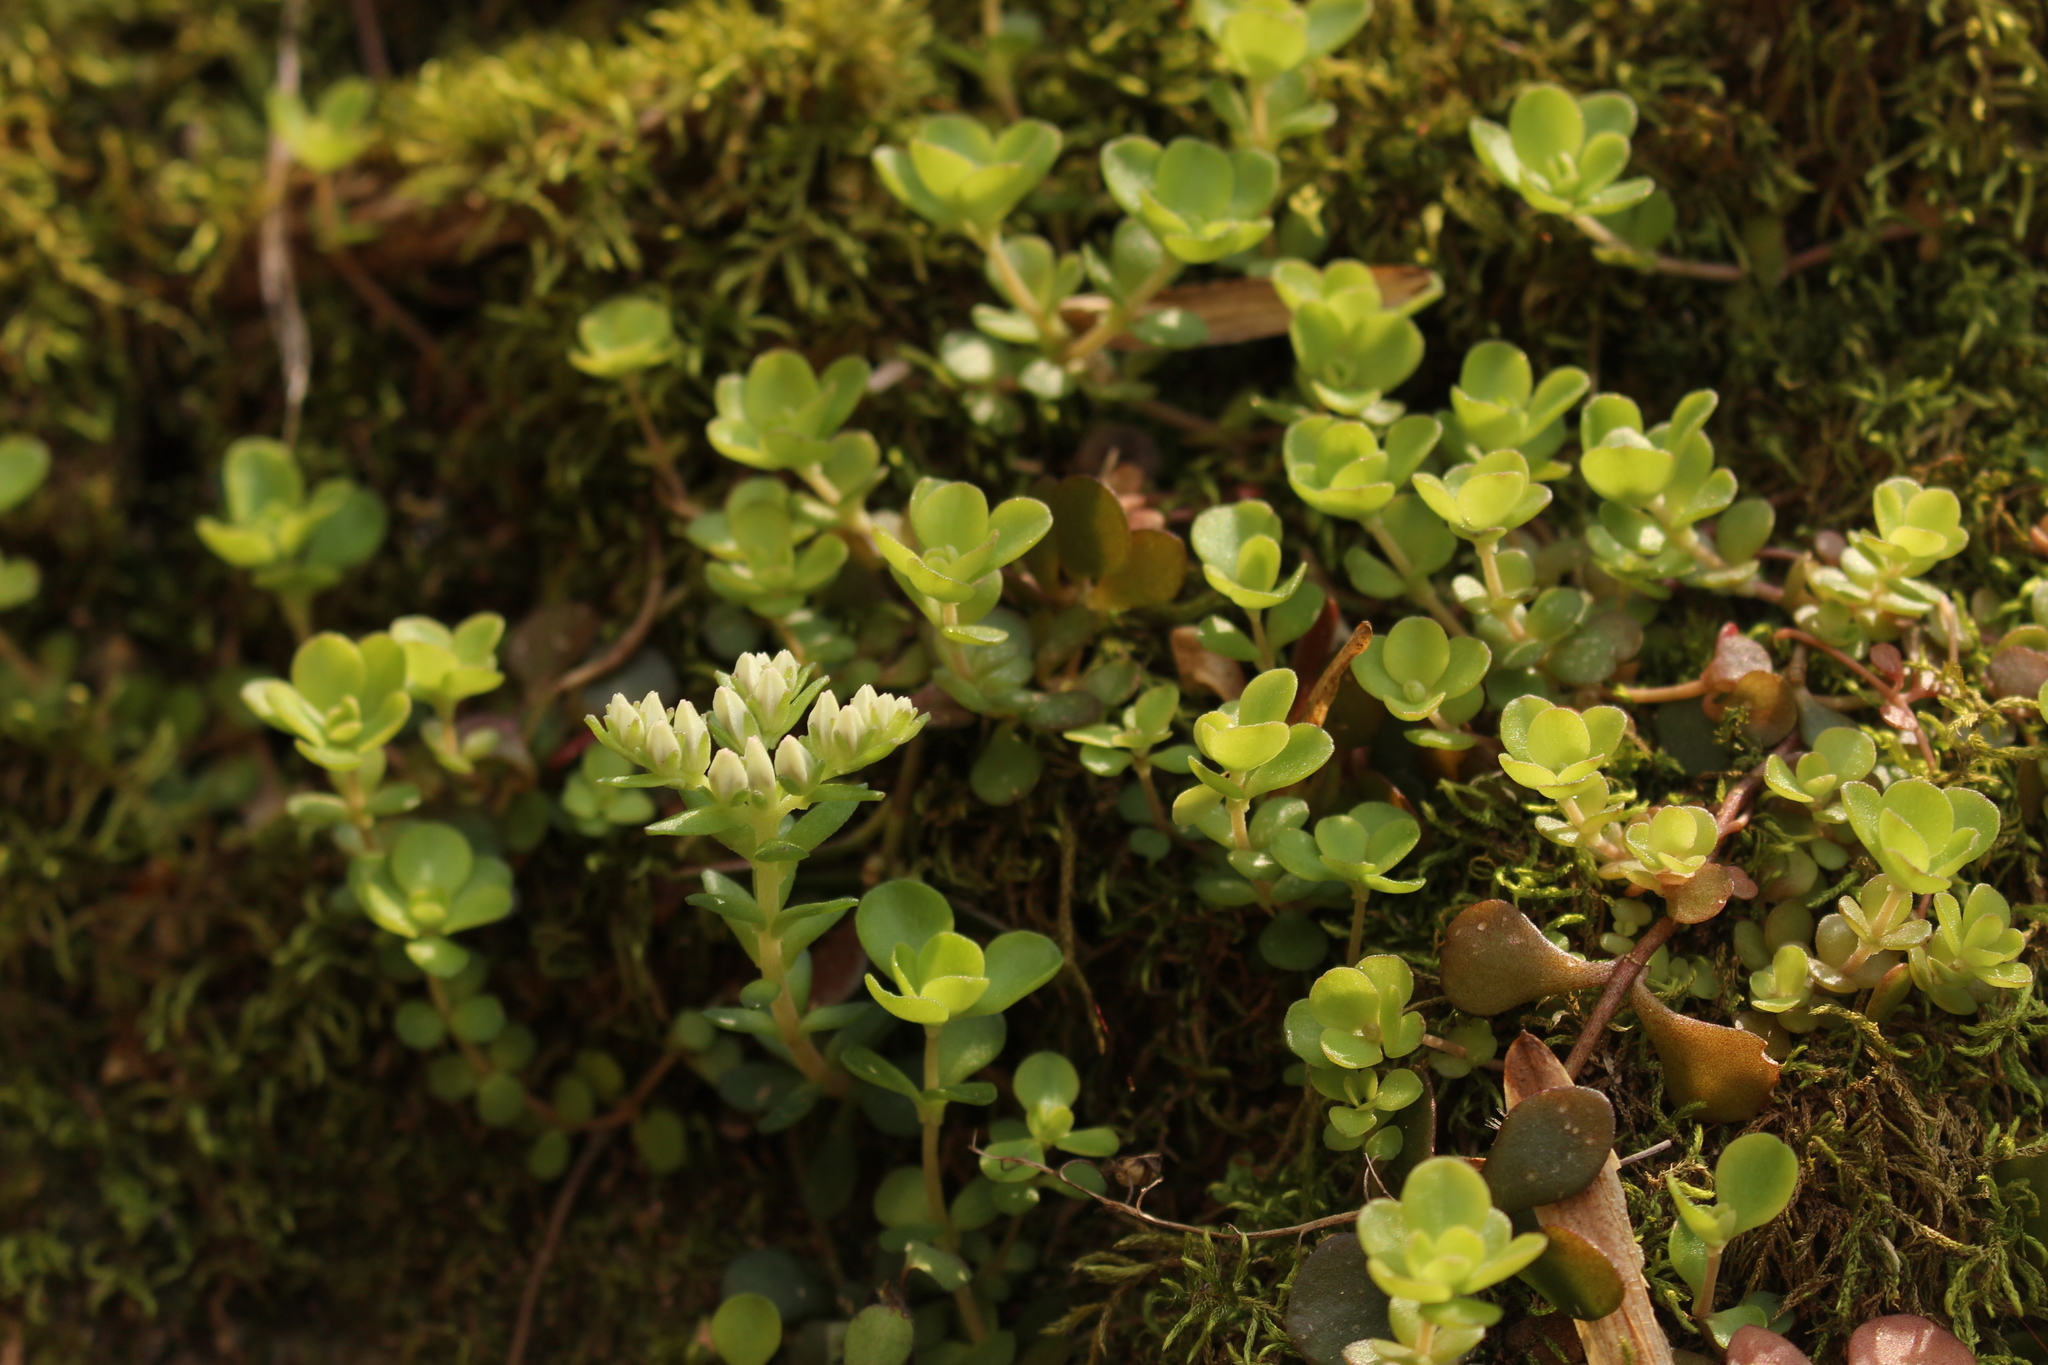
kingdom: Plantae
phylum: Tracheophyta
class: Magnoliopsida
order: Saxifragales
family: Crassulaceae
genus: Sedum
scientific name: Sedum ternatum
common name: Wild stonecrop
